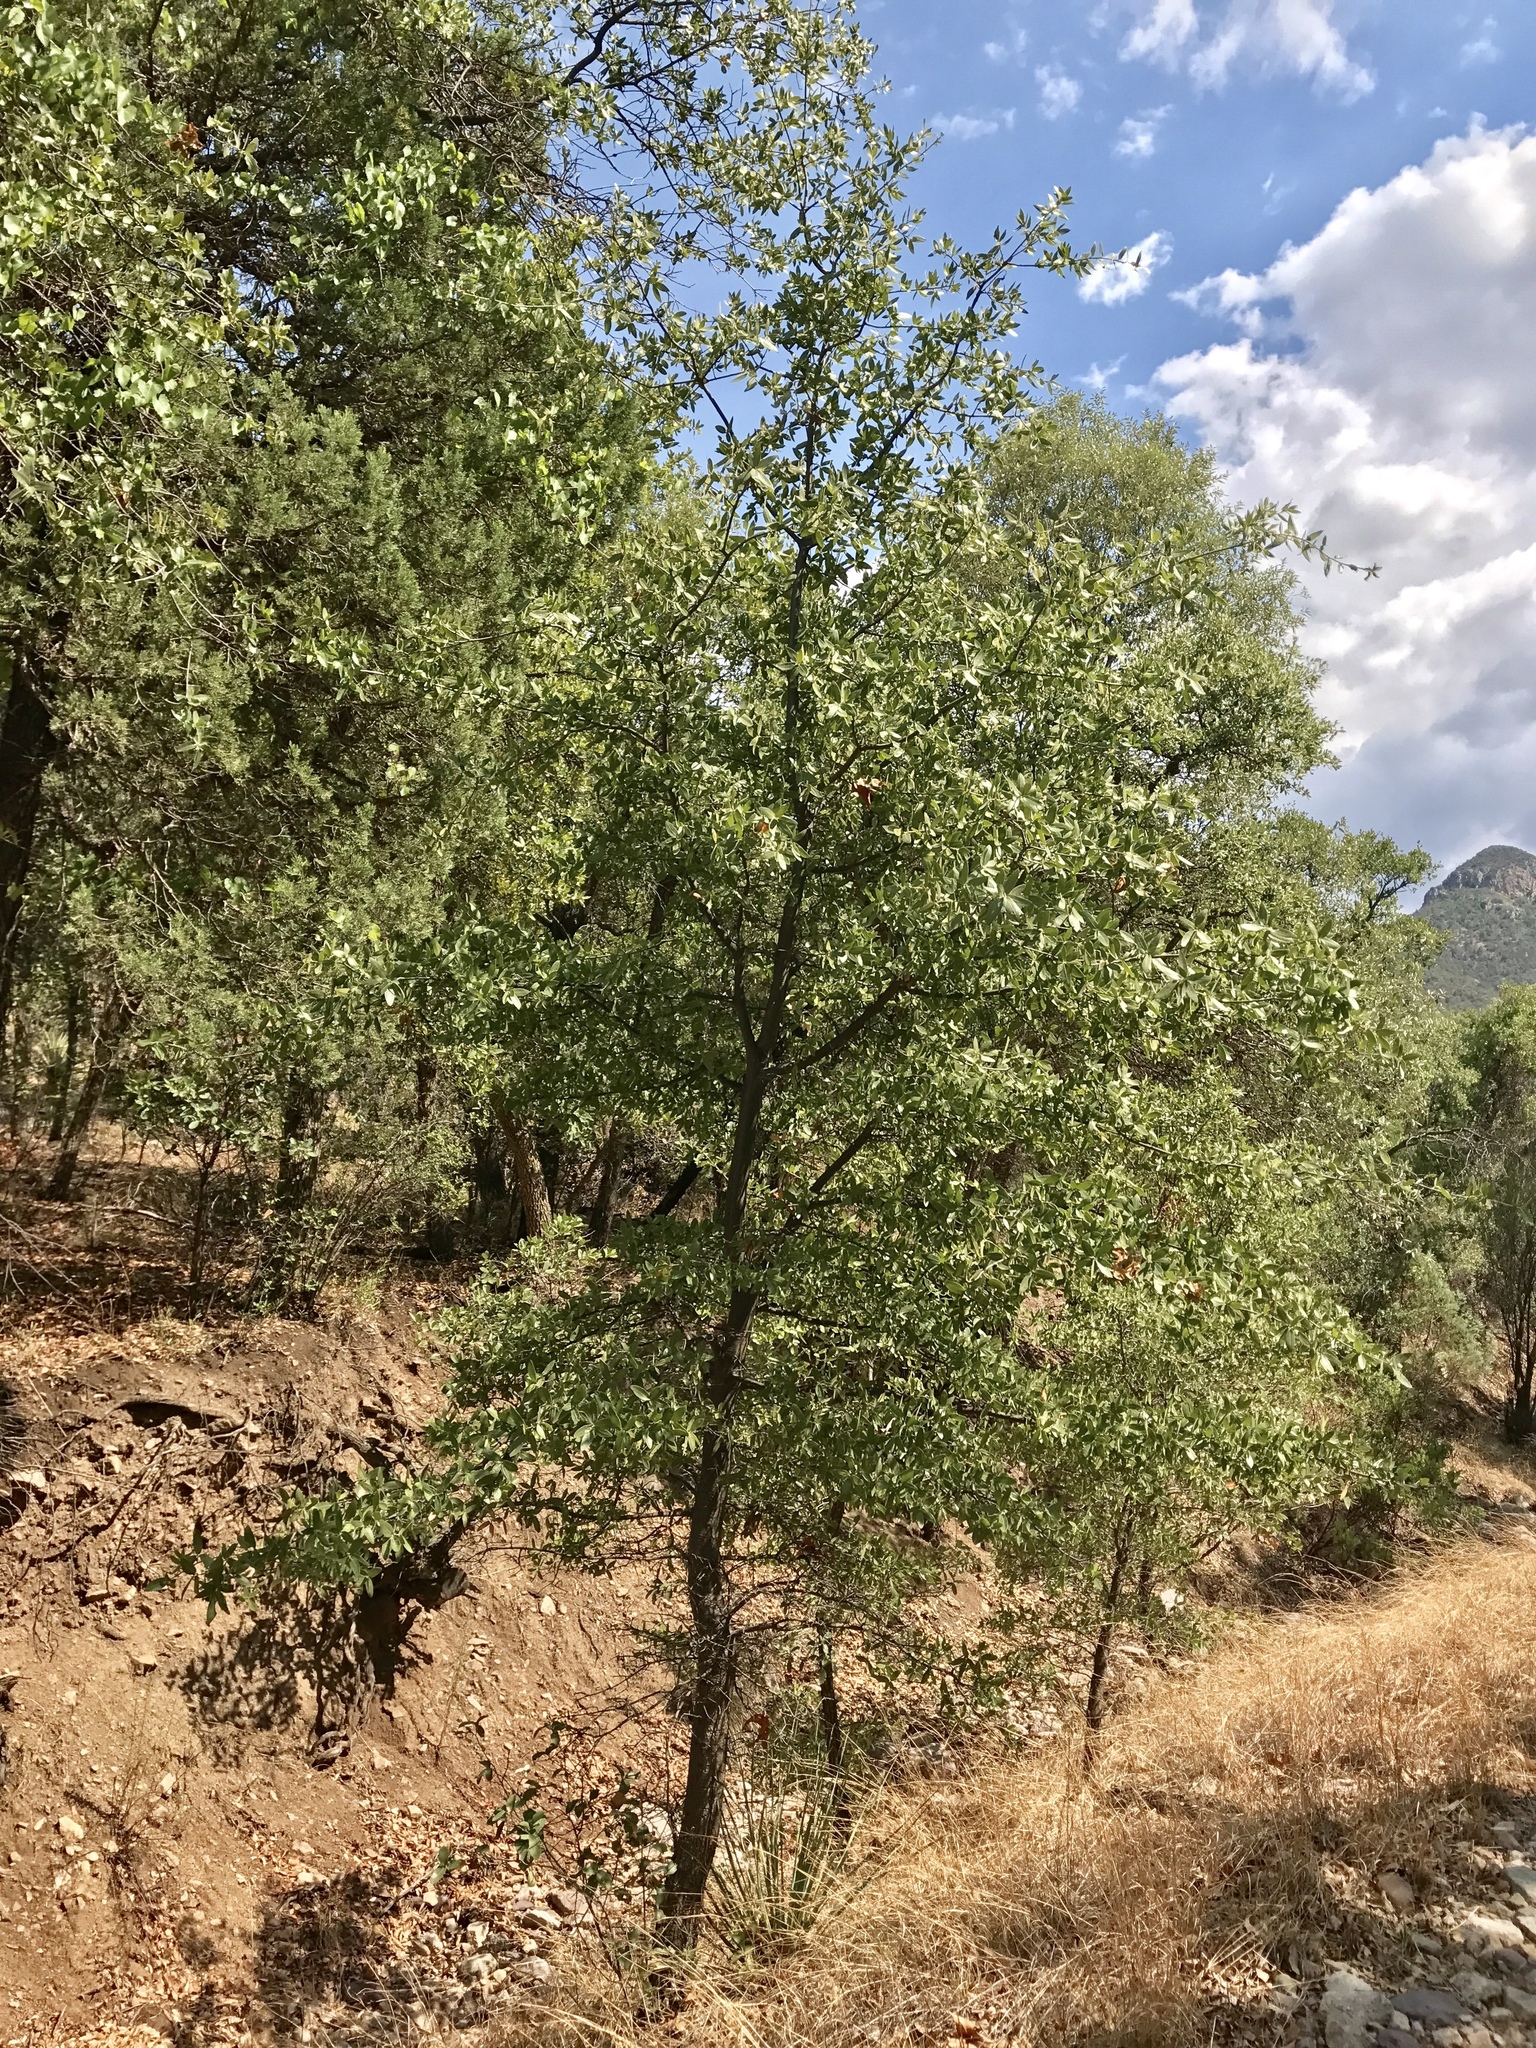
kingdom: Plantae
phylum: Tracheophyta
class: Magnoliopsida
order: Fagales
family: Fagaceae
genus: Quercus
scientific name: Quercus emoryi
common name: Emory oak
